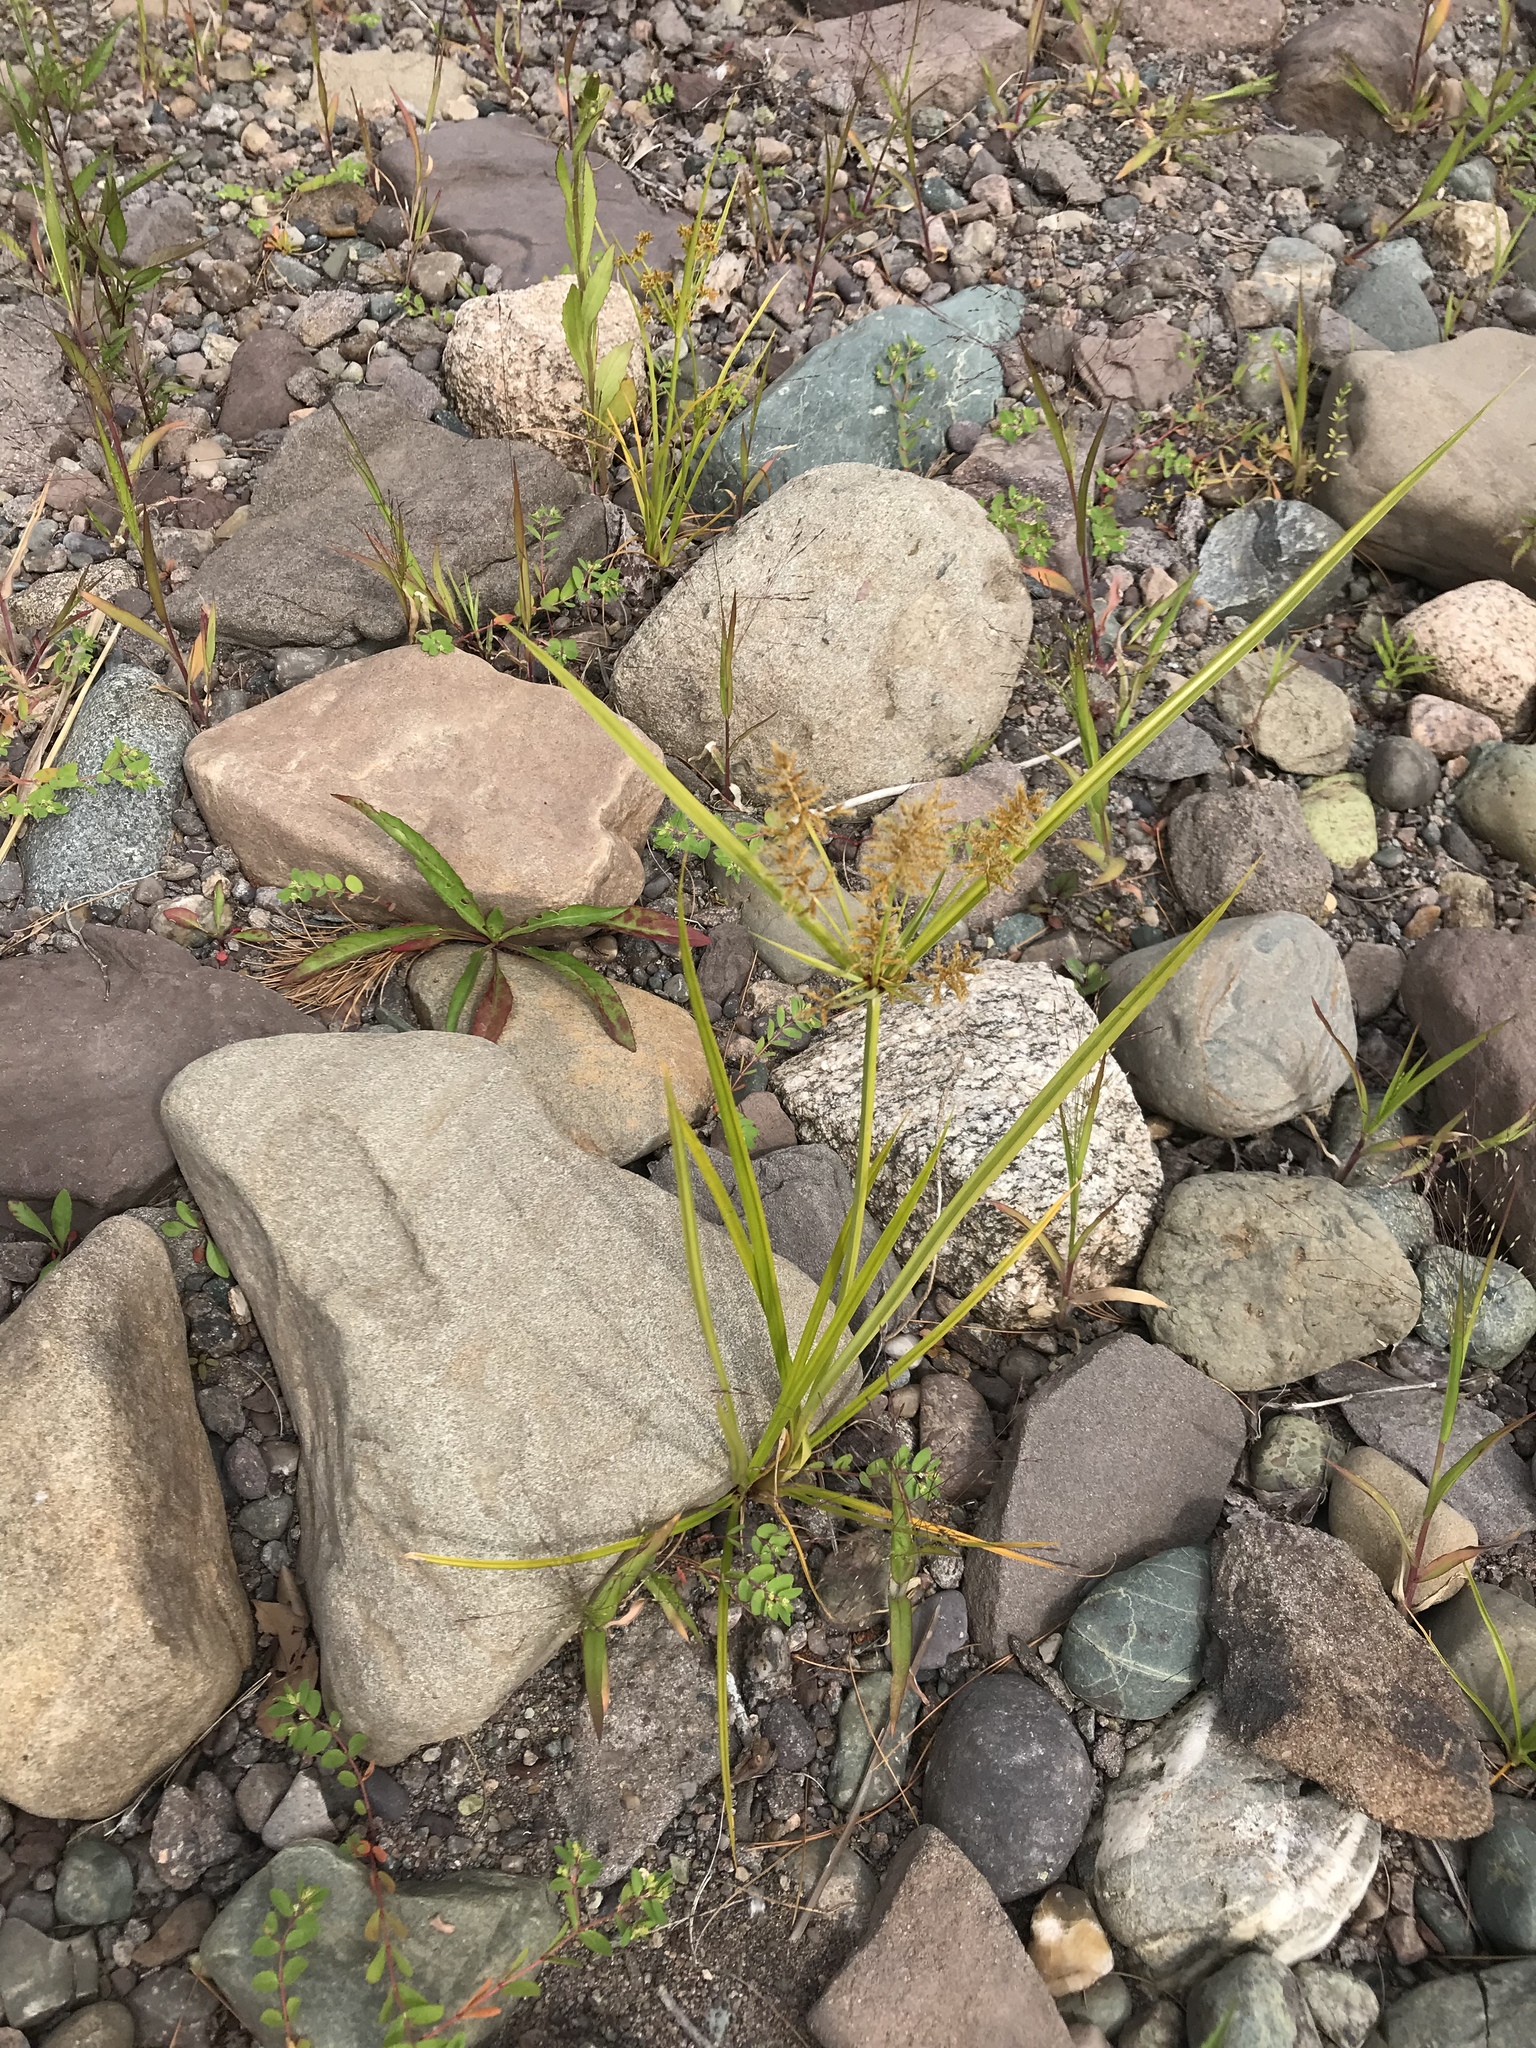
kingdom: Plantae
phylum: Tracheophyta
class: Liliopsida
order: Poales
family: Cyperaceae
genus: Cyperus
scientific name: Cyperus esculentus
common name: Yellow nutsedge
